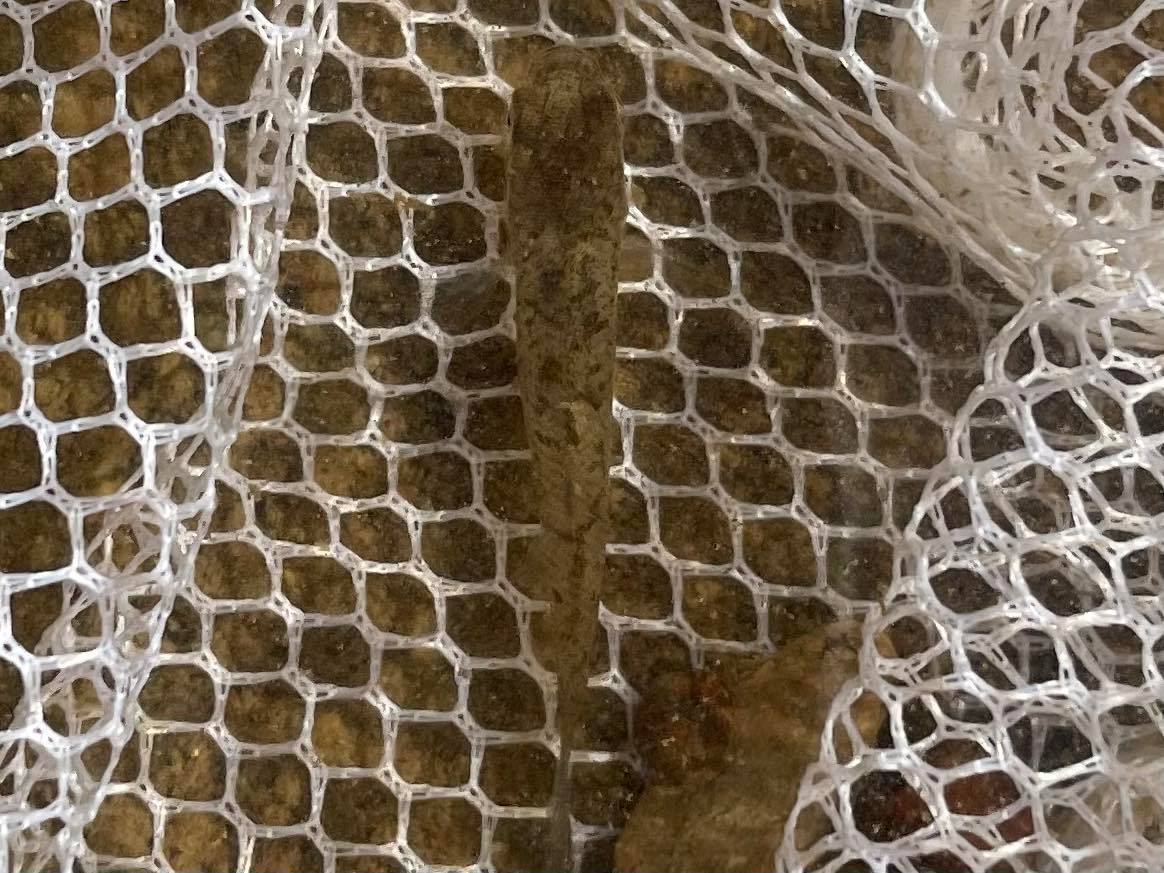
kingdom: Animalia
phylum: Chordata
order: Cyprinodontiformes
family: Fundulidae
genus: Fundulus
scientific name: Fundulus rathbuni
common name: Speckled killifish
